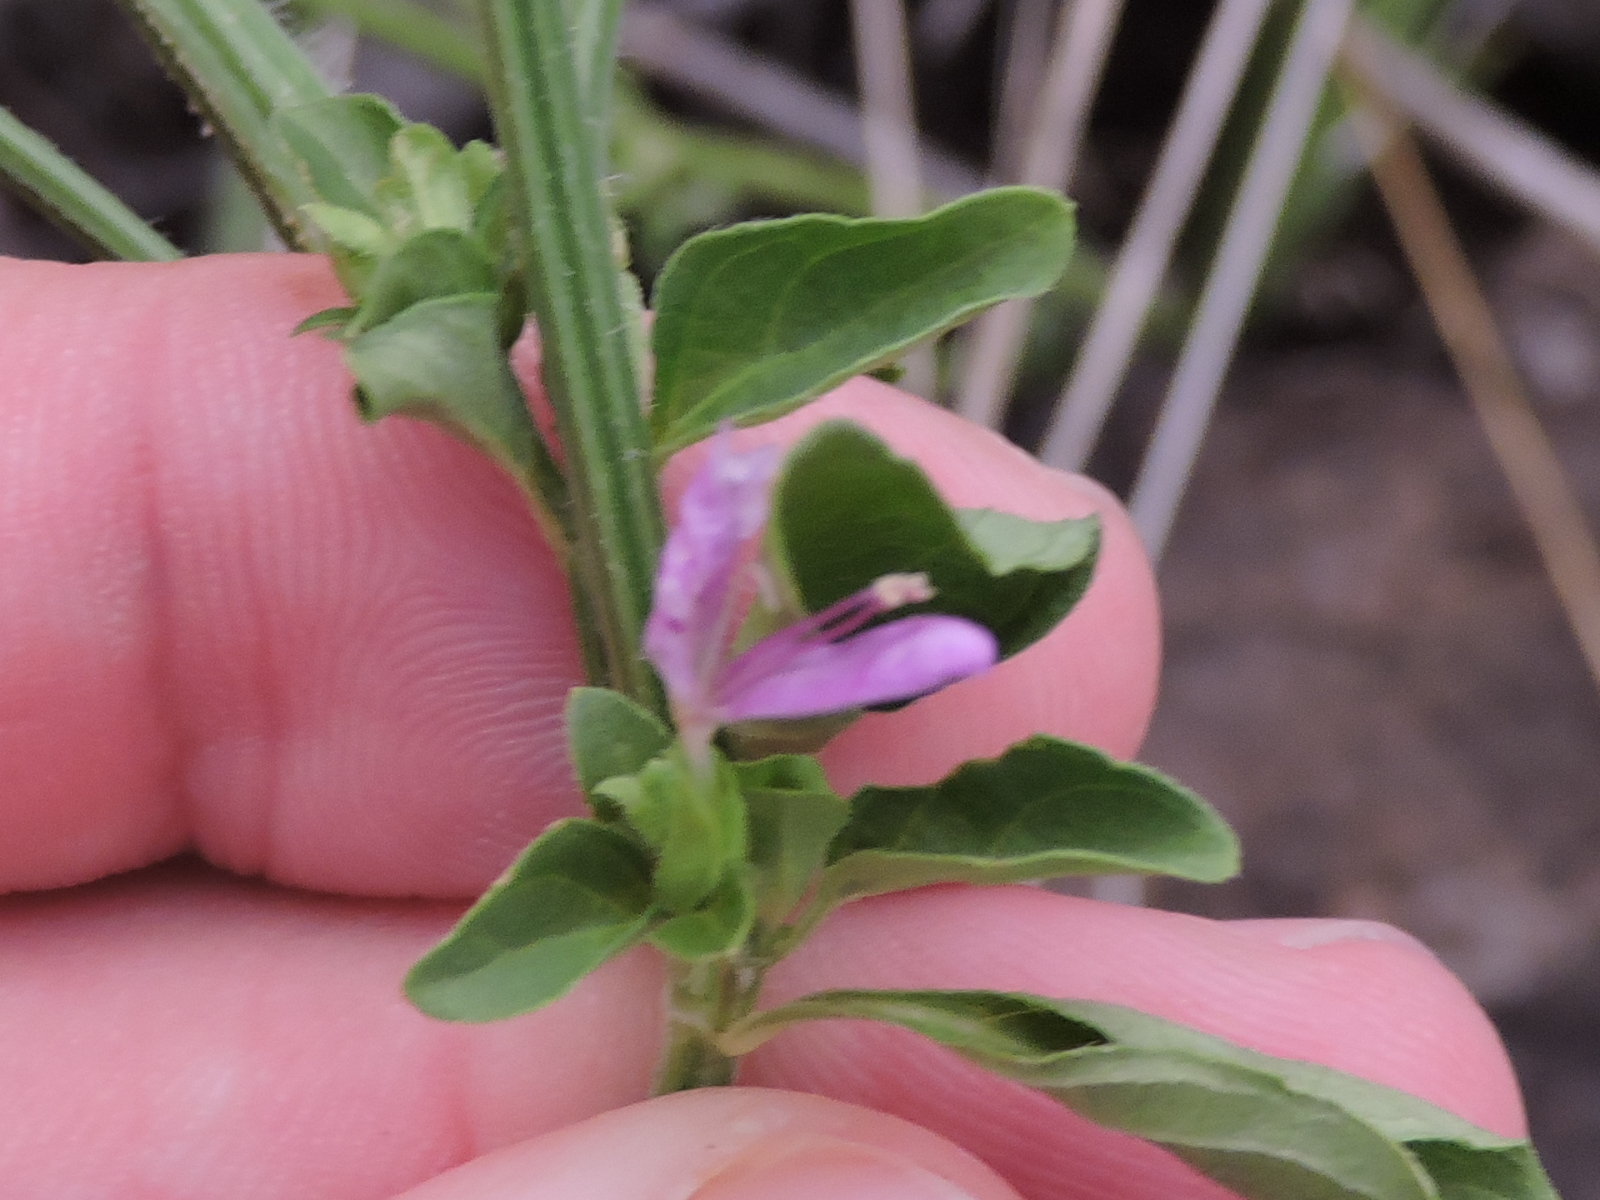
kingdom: Plantae
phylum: Tracheophyta
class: Magnoliopsida
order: Lamiales
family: Acanthaceae
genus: Dicliptera
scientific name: Dicliptera brachiata
